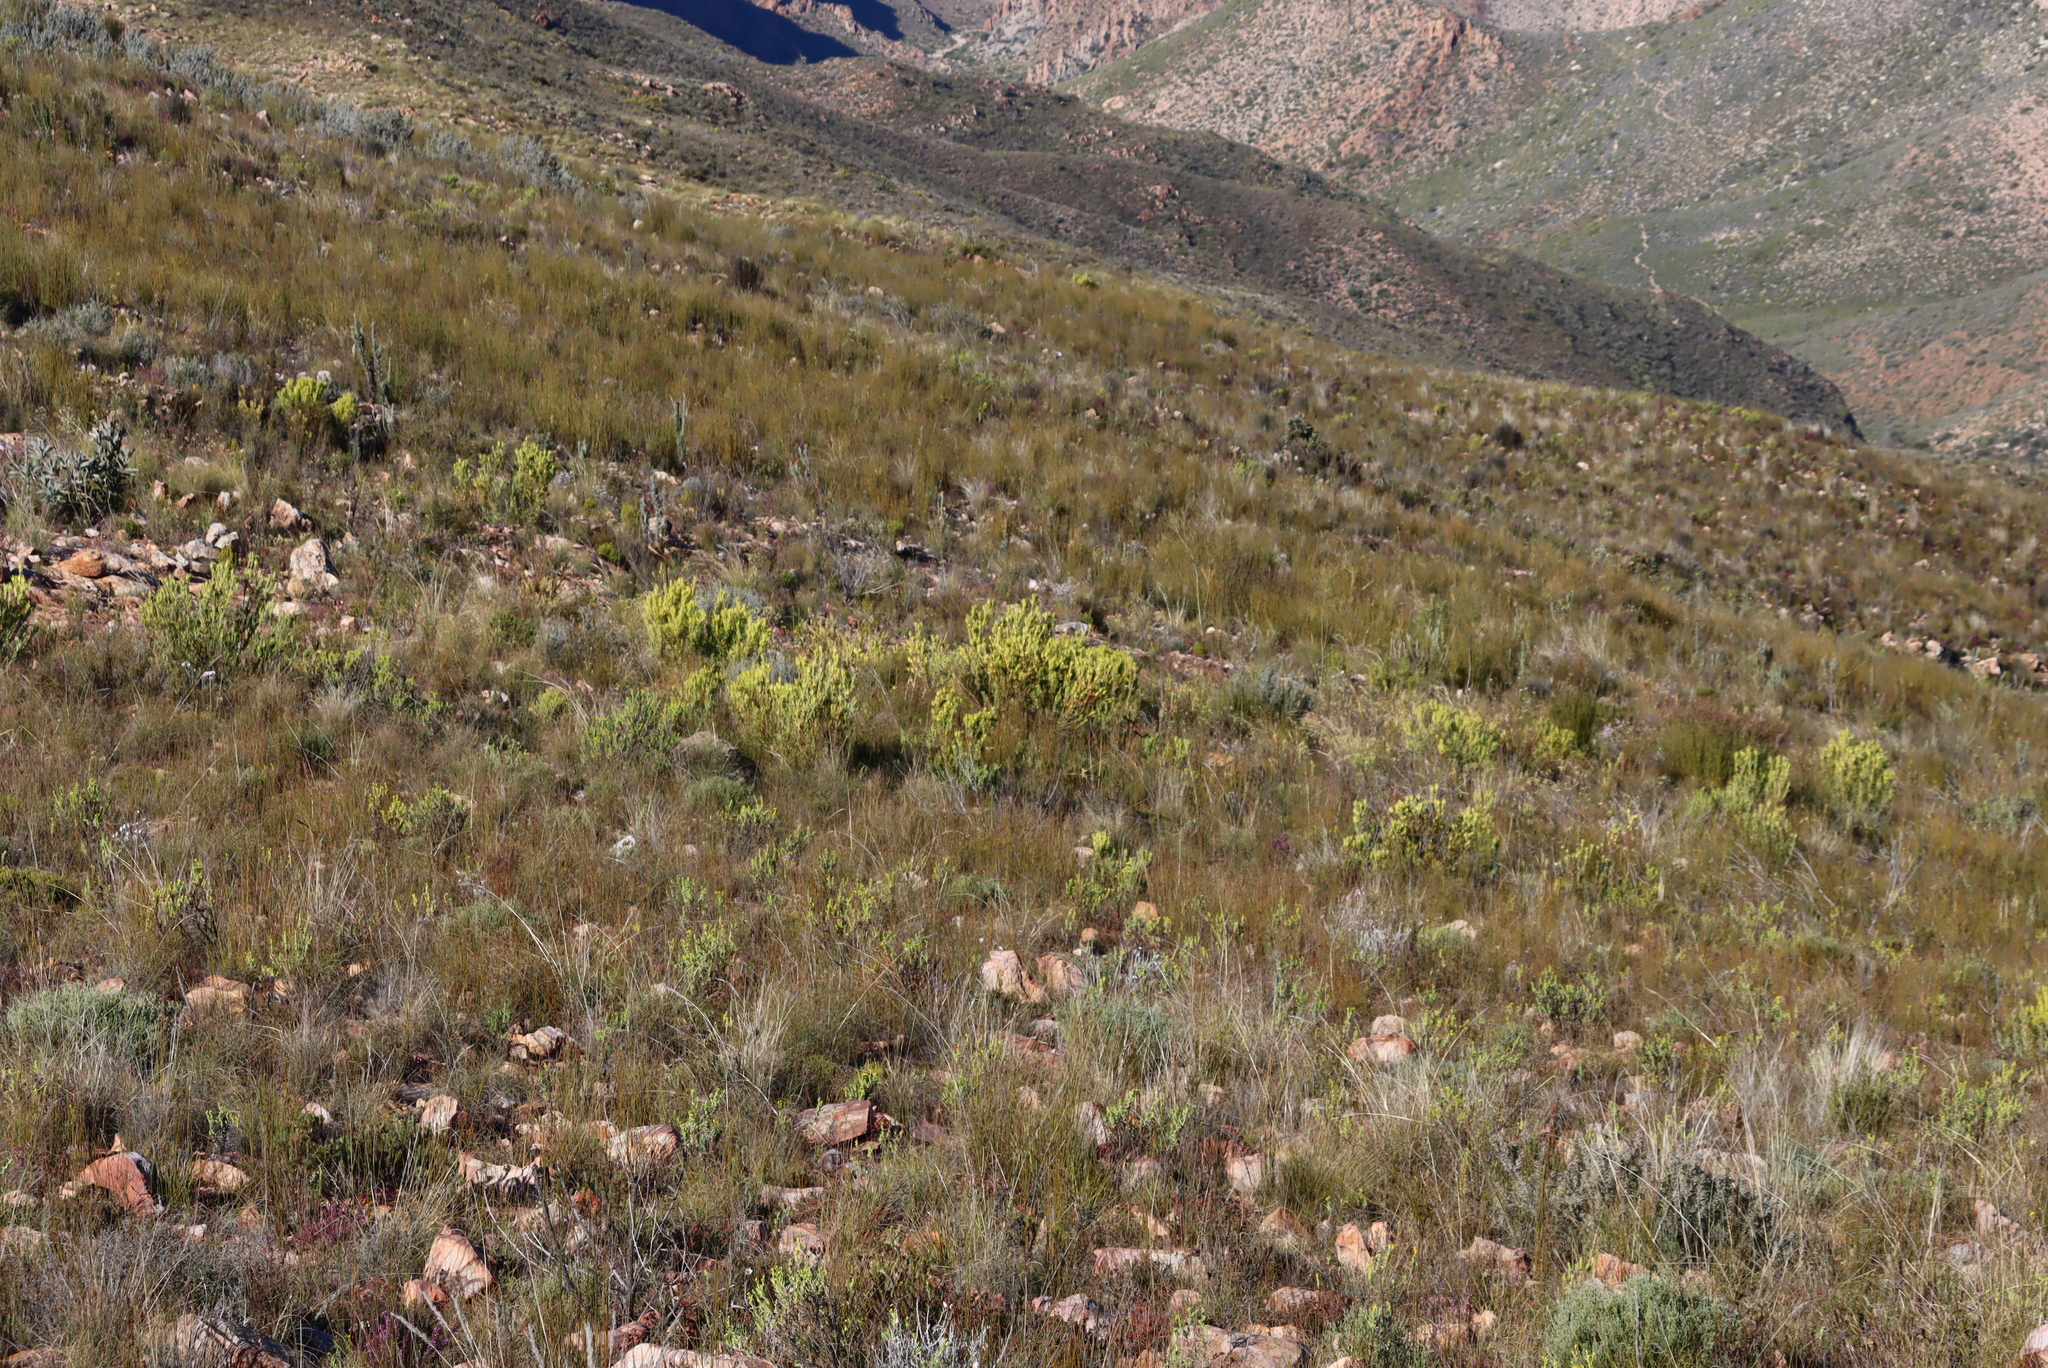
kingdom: Plantae
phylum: Tracheophyta
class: Magnoliopsida
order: Proteales
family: Proteaceae
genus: Leucadendron
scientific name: Leucadendron salignum
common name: Common sunshine conebush
